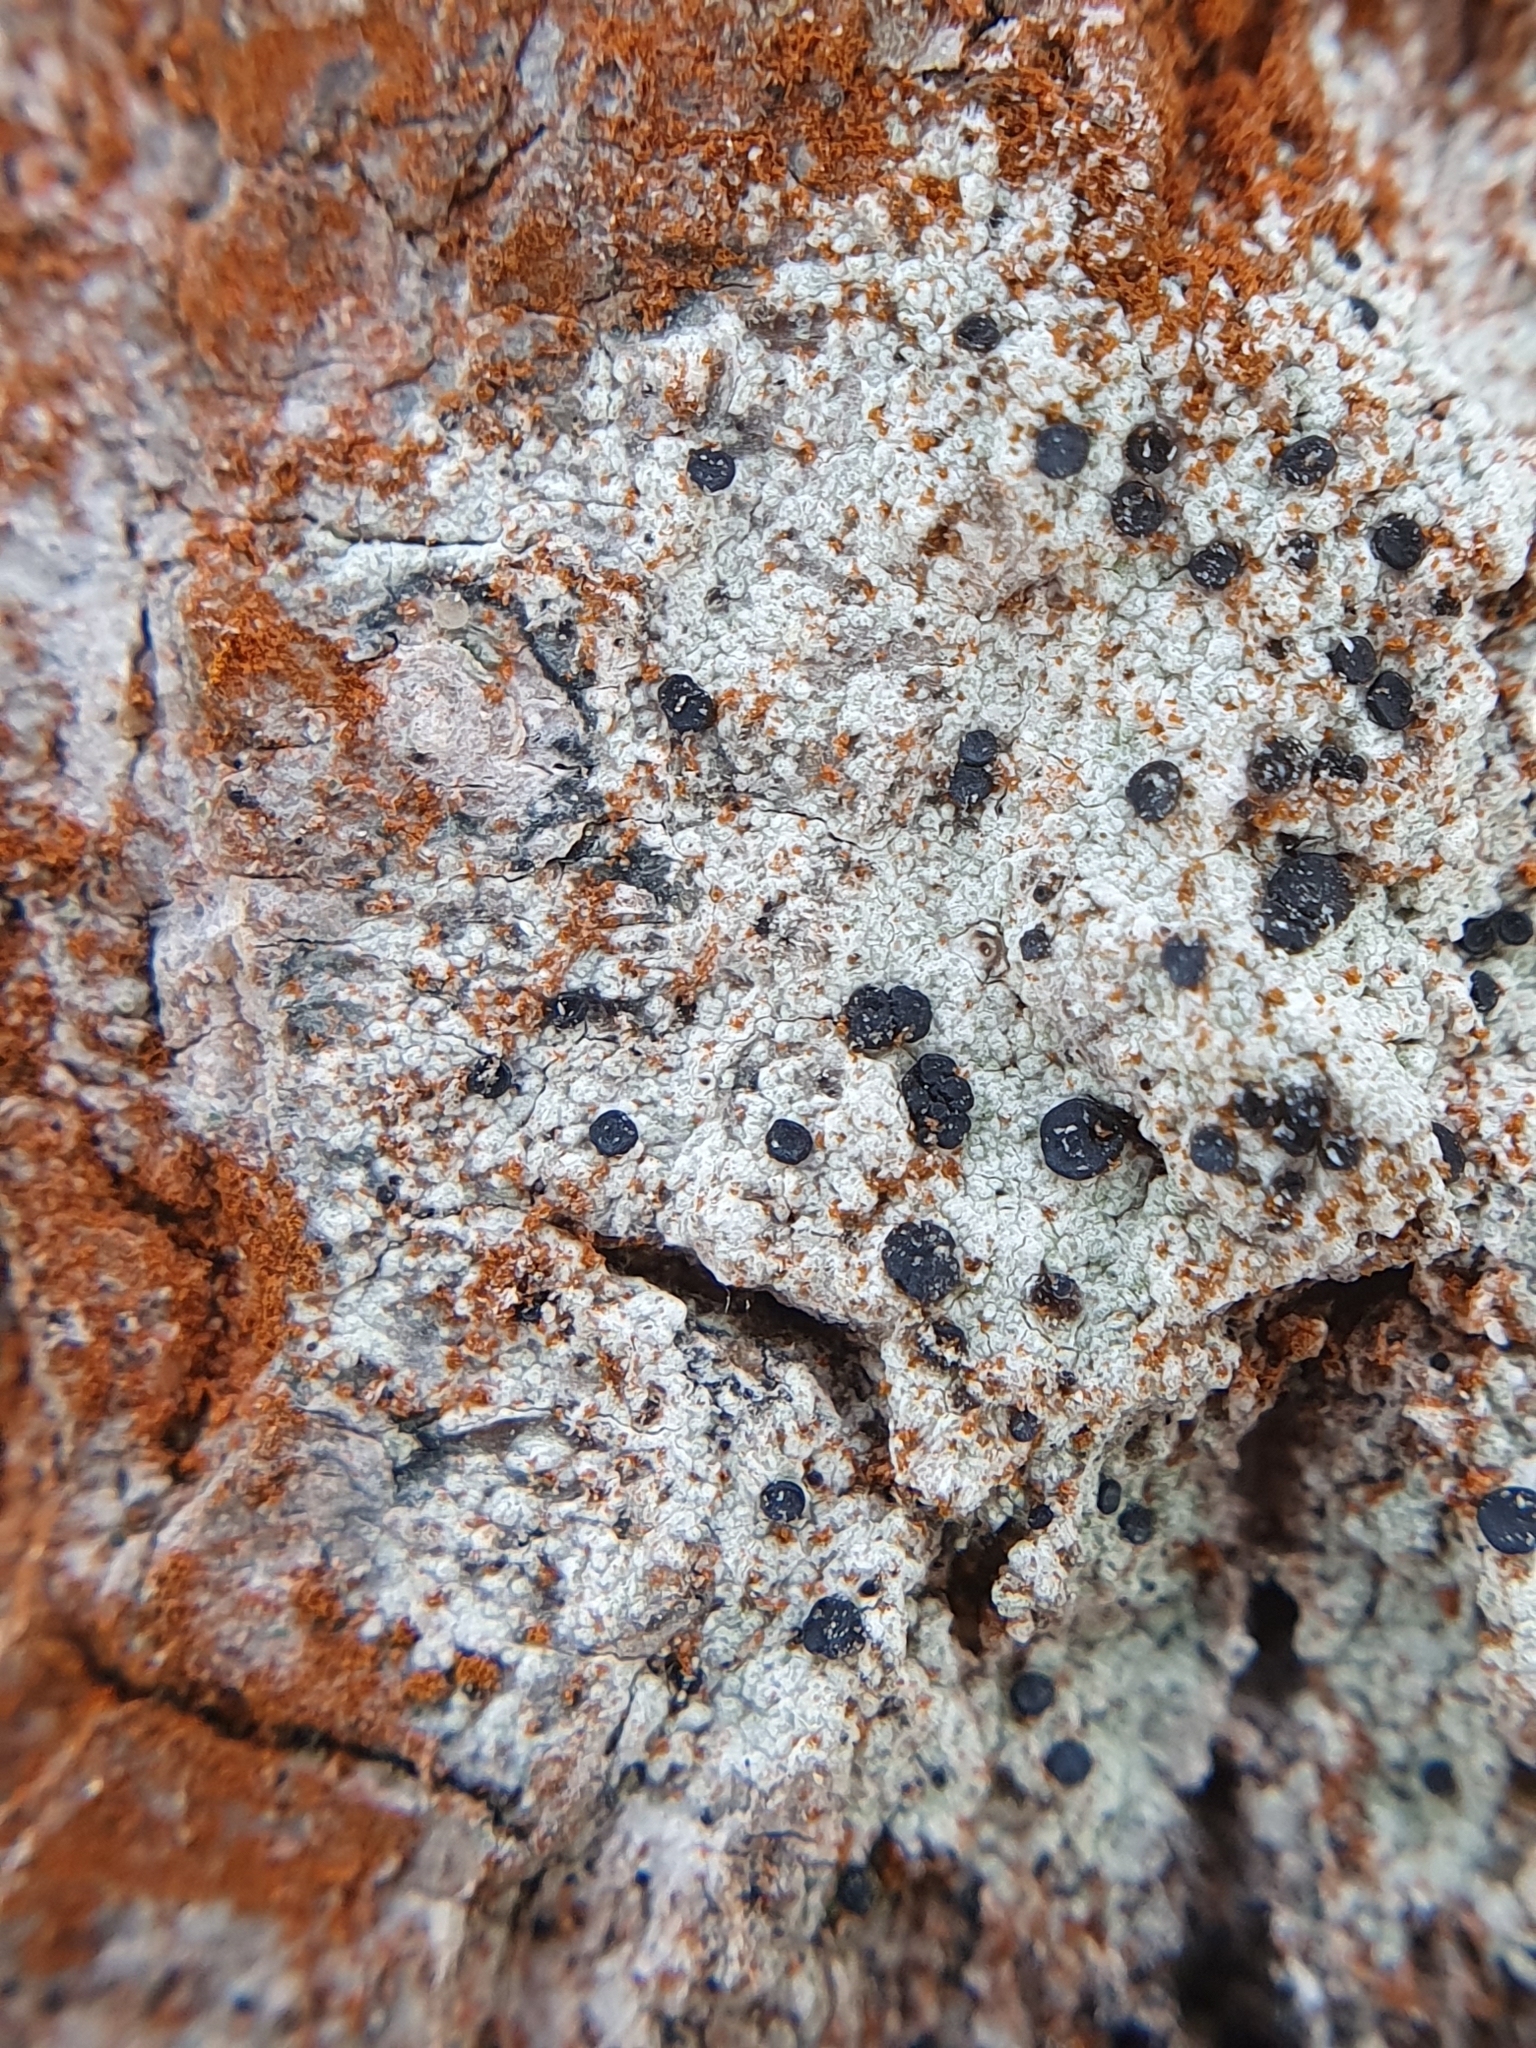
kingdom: Fungi
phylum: Ascomycota
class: Lecanoromycetes
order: Lecanorales
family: Lecanoraceae
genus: Lecidella
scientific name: Lecidella elaeochroma
